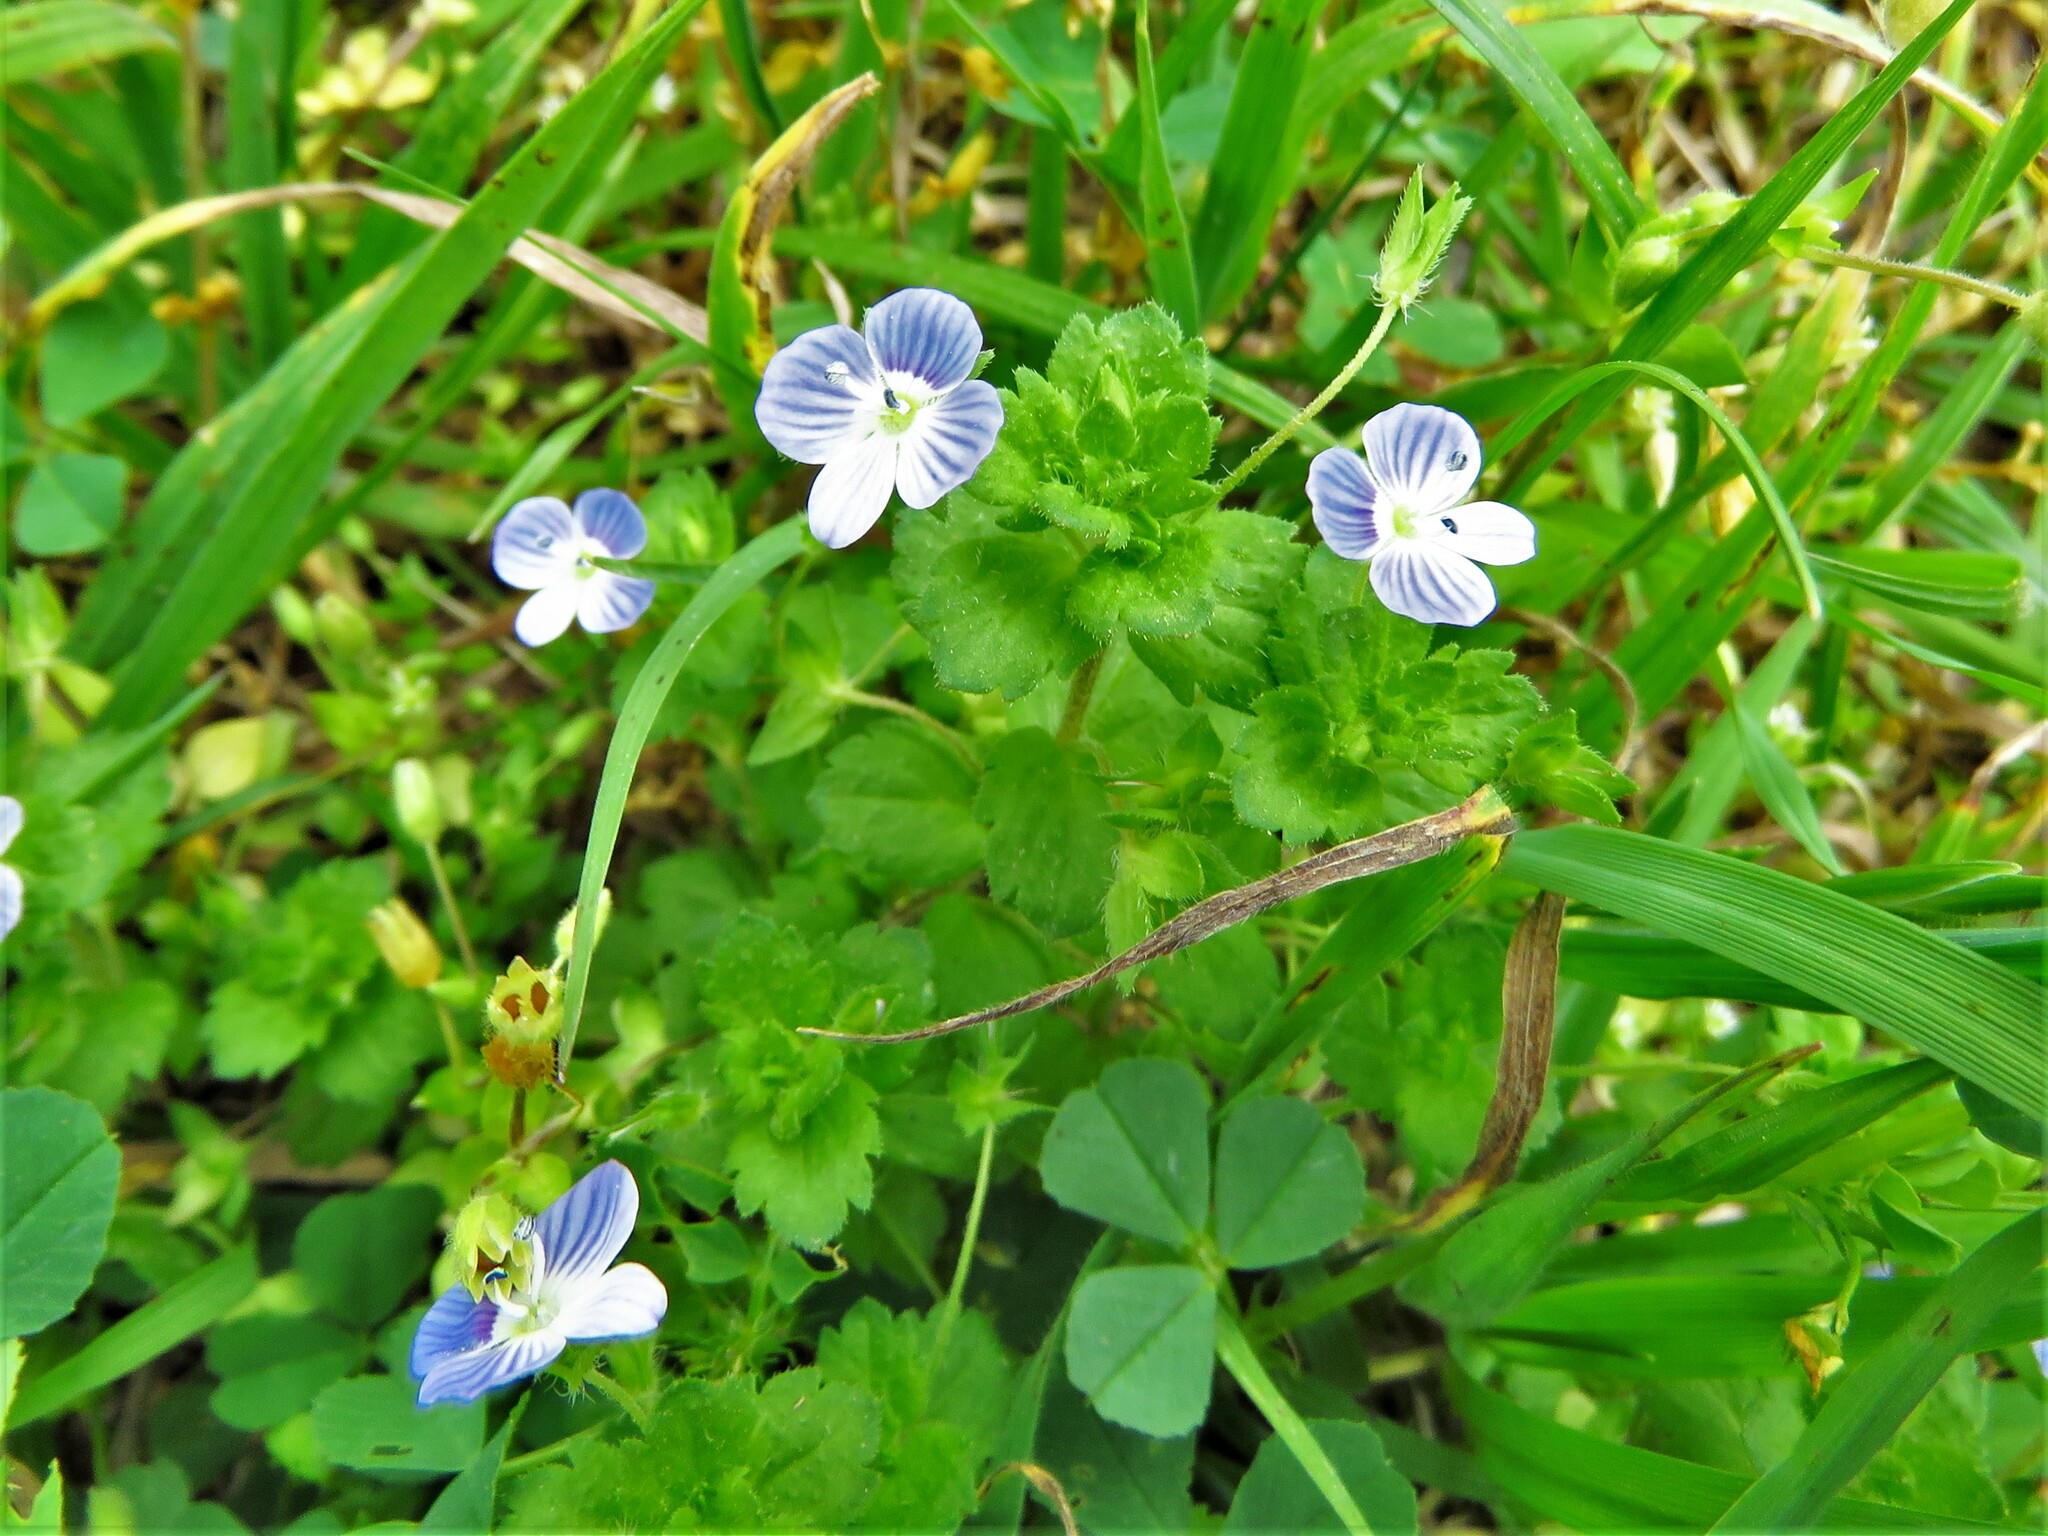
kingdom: Plantae
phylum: Tracheophyta
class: Magnoliopsida
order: Lamiales
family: Plantaginaceae
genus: Veronica
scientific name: Veronica persica
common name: Common field-speedwell
